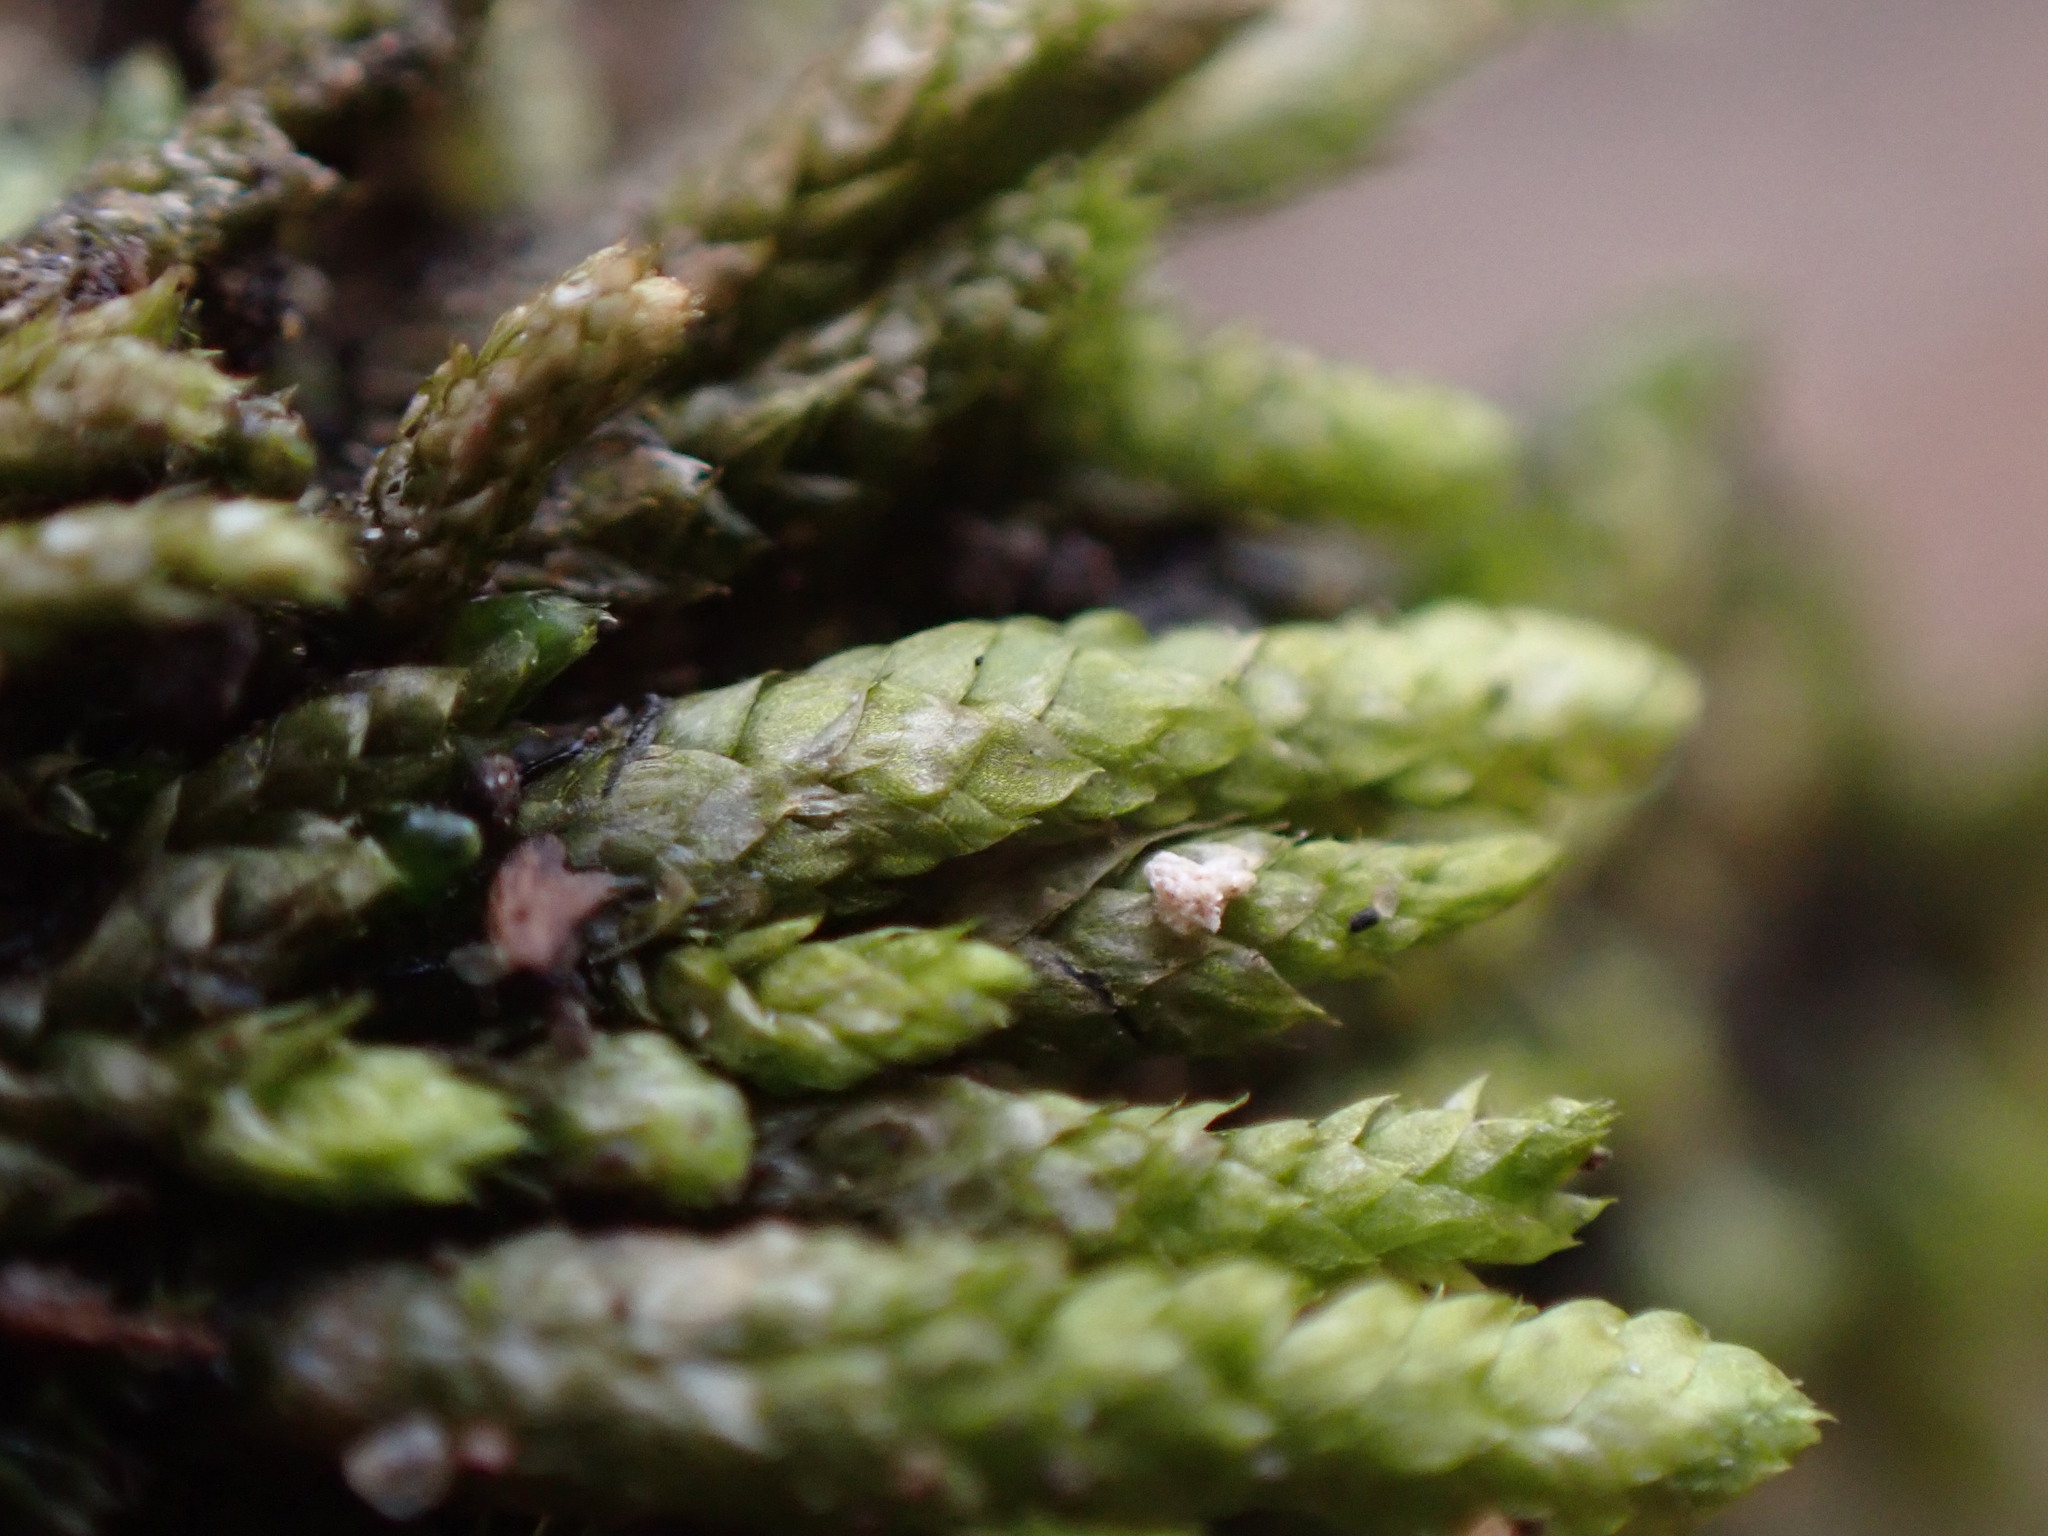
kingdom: Plantae
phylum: Bryophyta
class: Bryopsida
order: Hypnales
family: Entodontaceae
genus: Entodon
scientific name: Entodon seductrix
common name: Round-stemmed entodon moss
